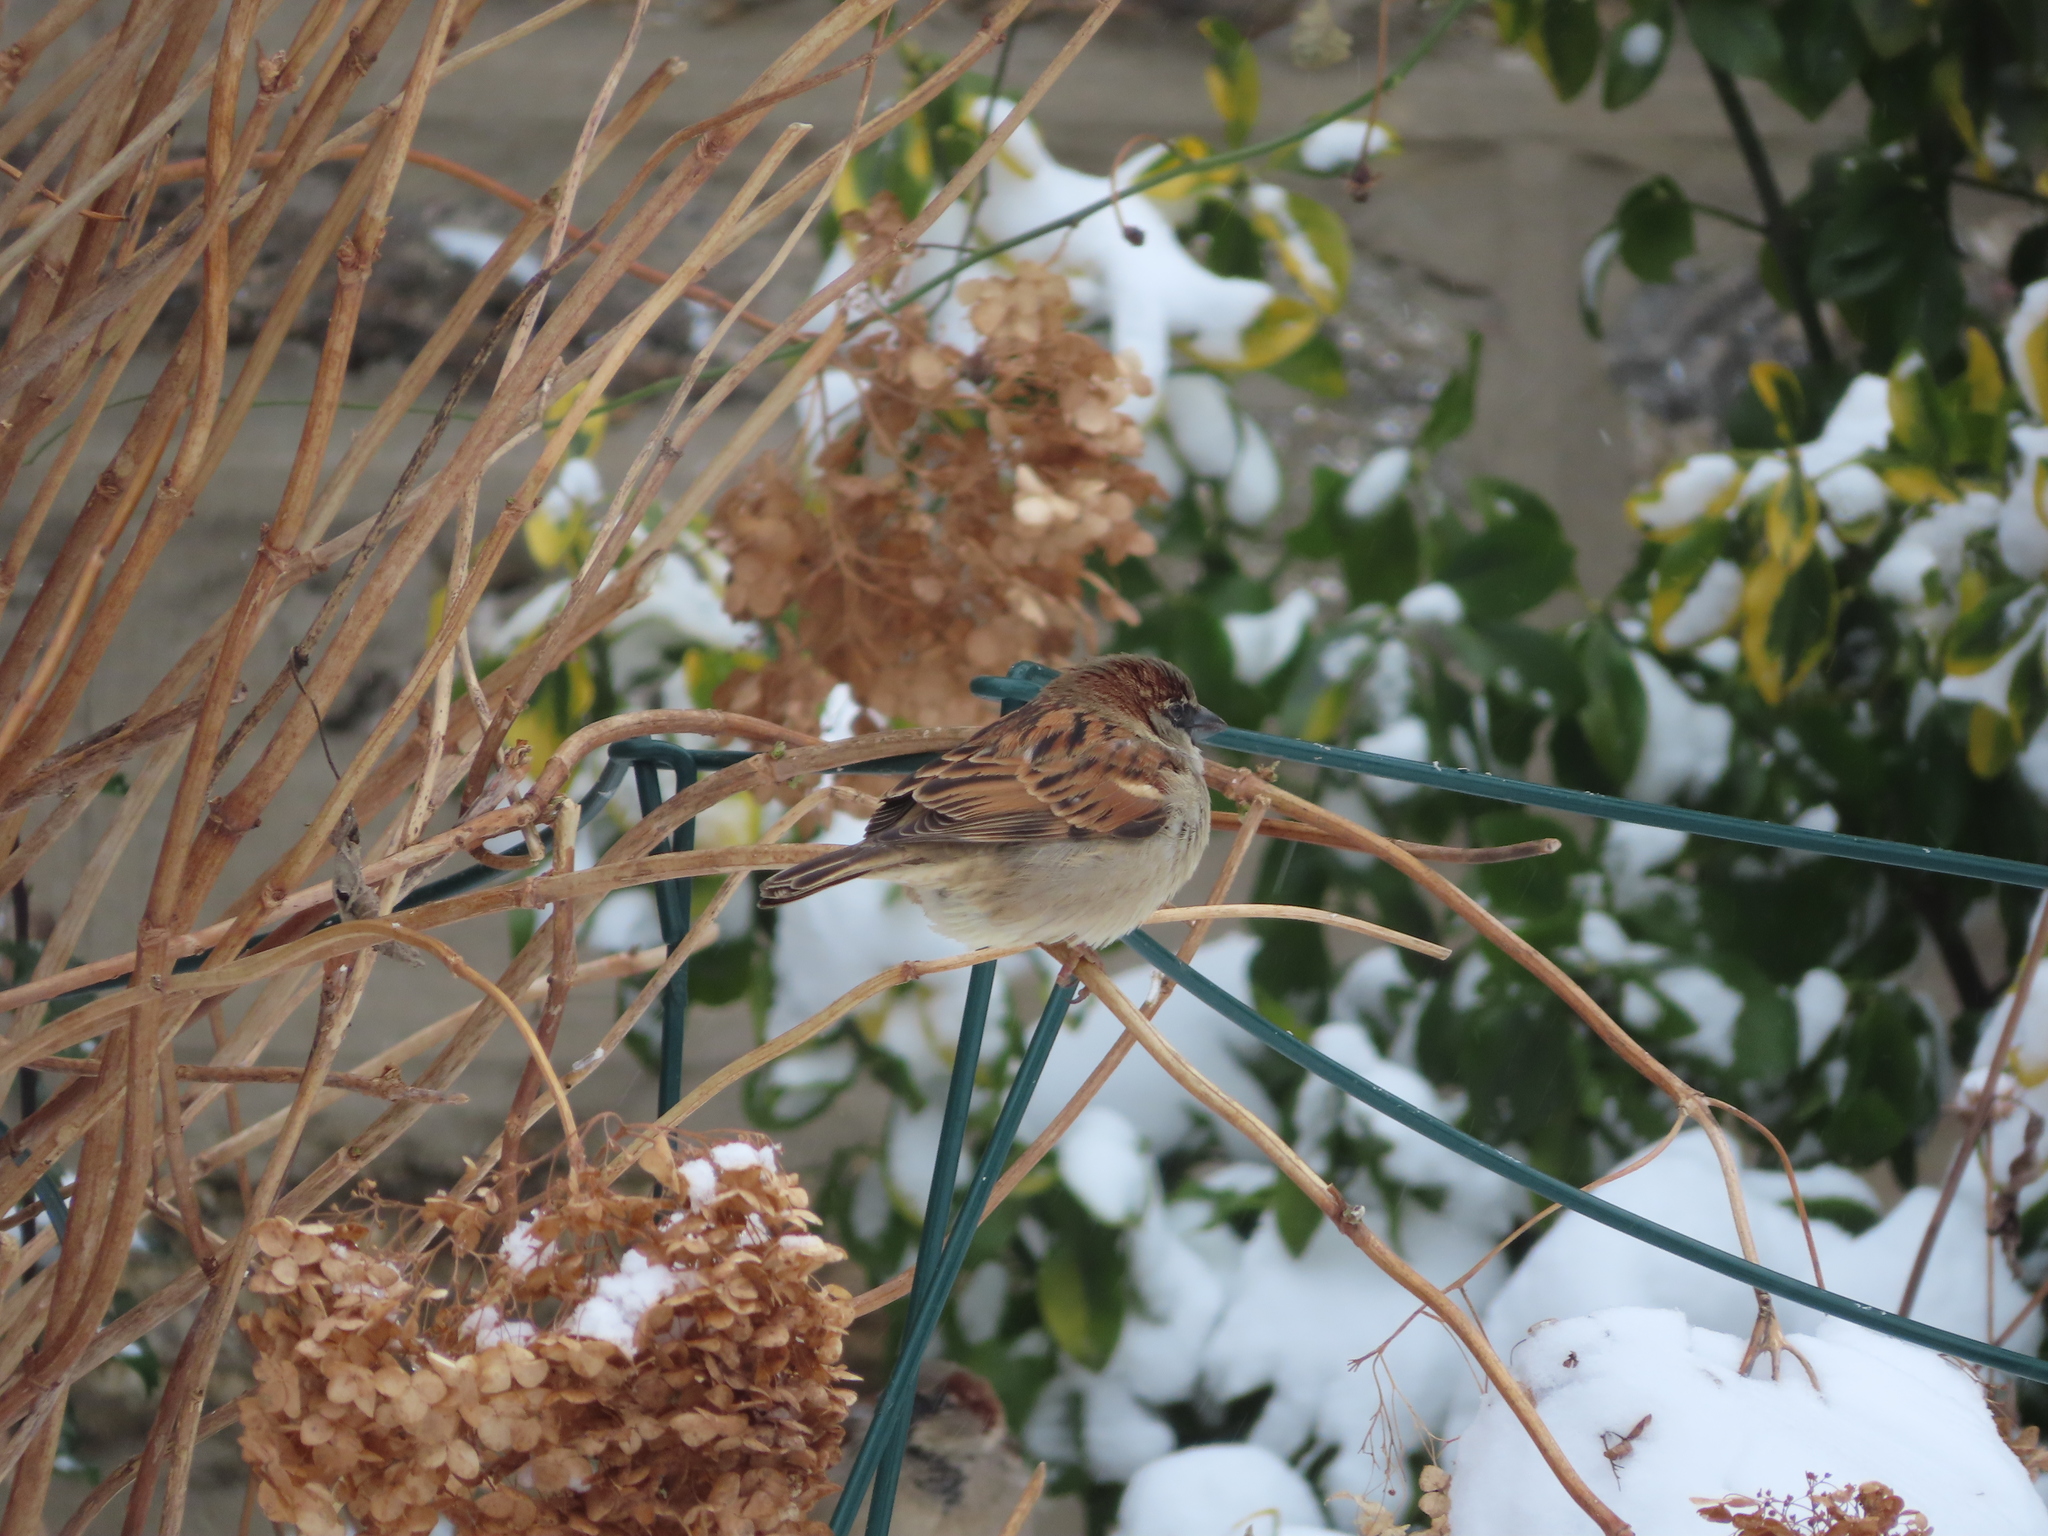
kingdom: Animalia
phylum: Chordata
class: Aves
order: Passeriformes
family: Passeridae
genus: Passer
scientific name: Passer domesticus
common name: House sparrow
